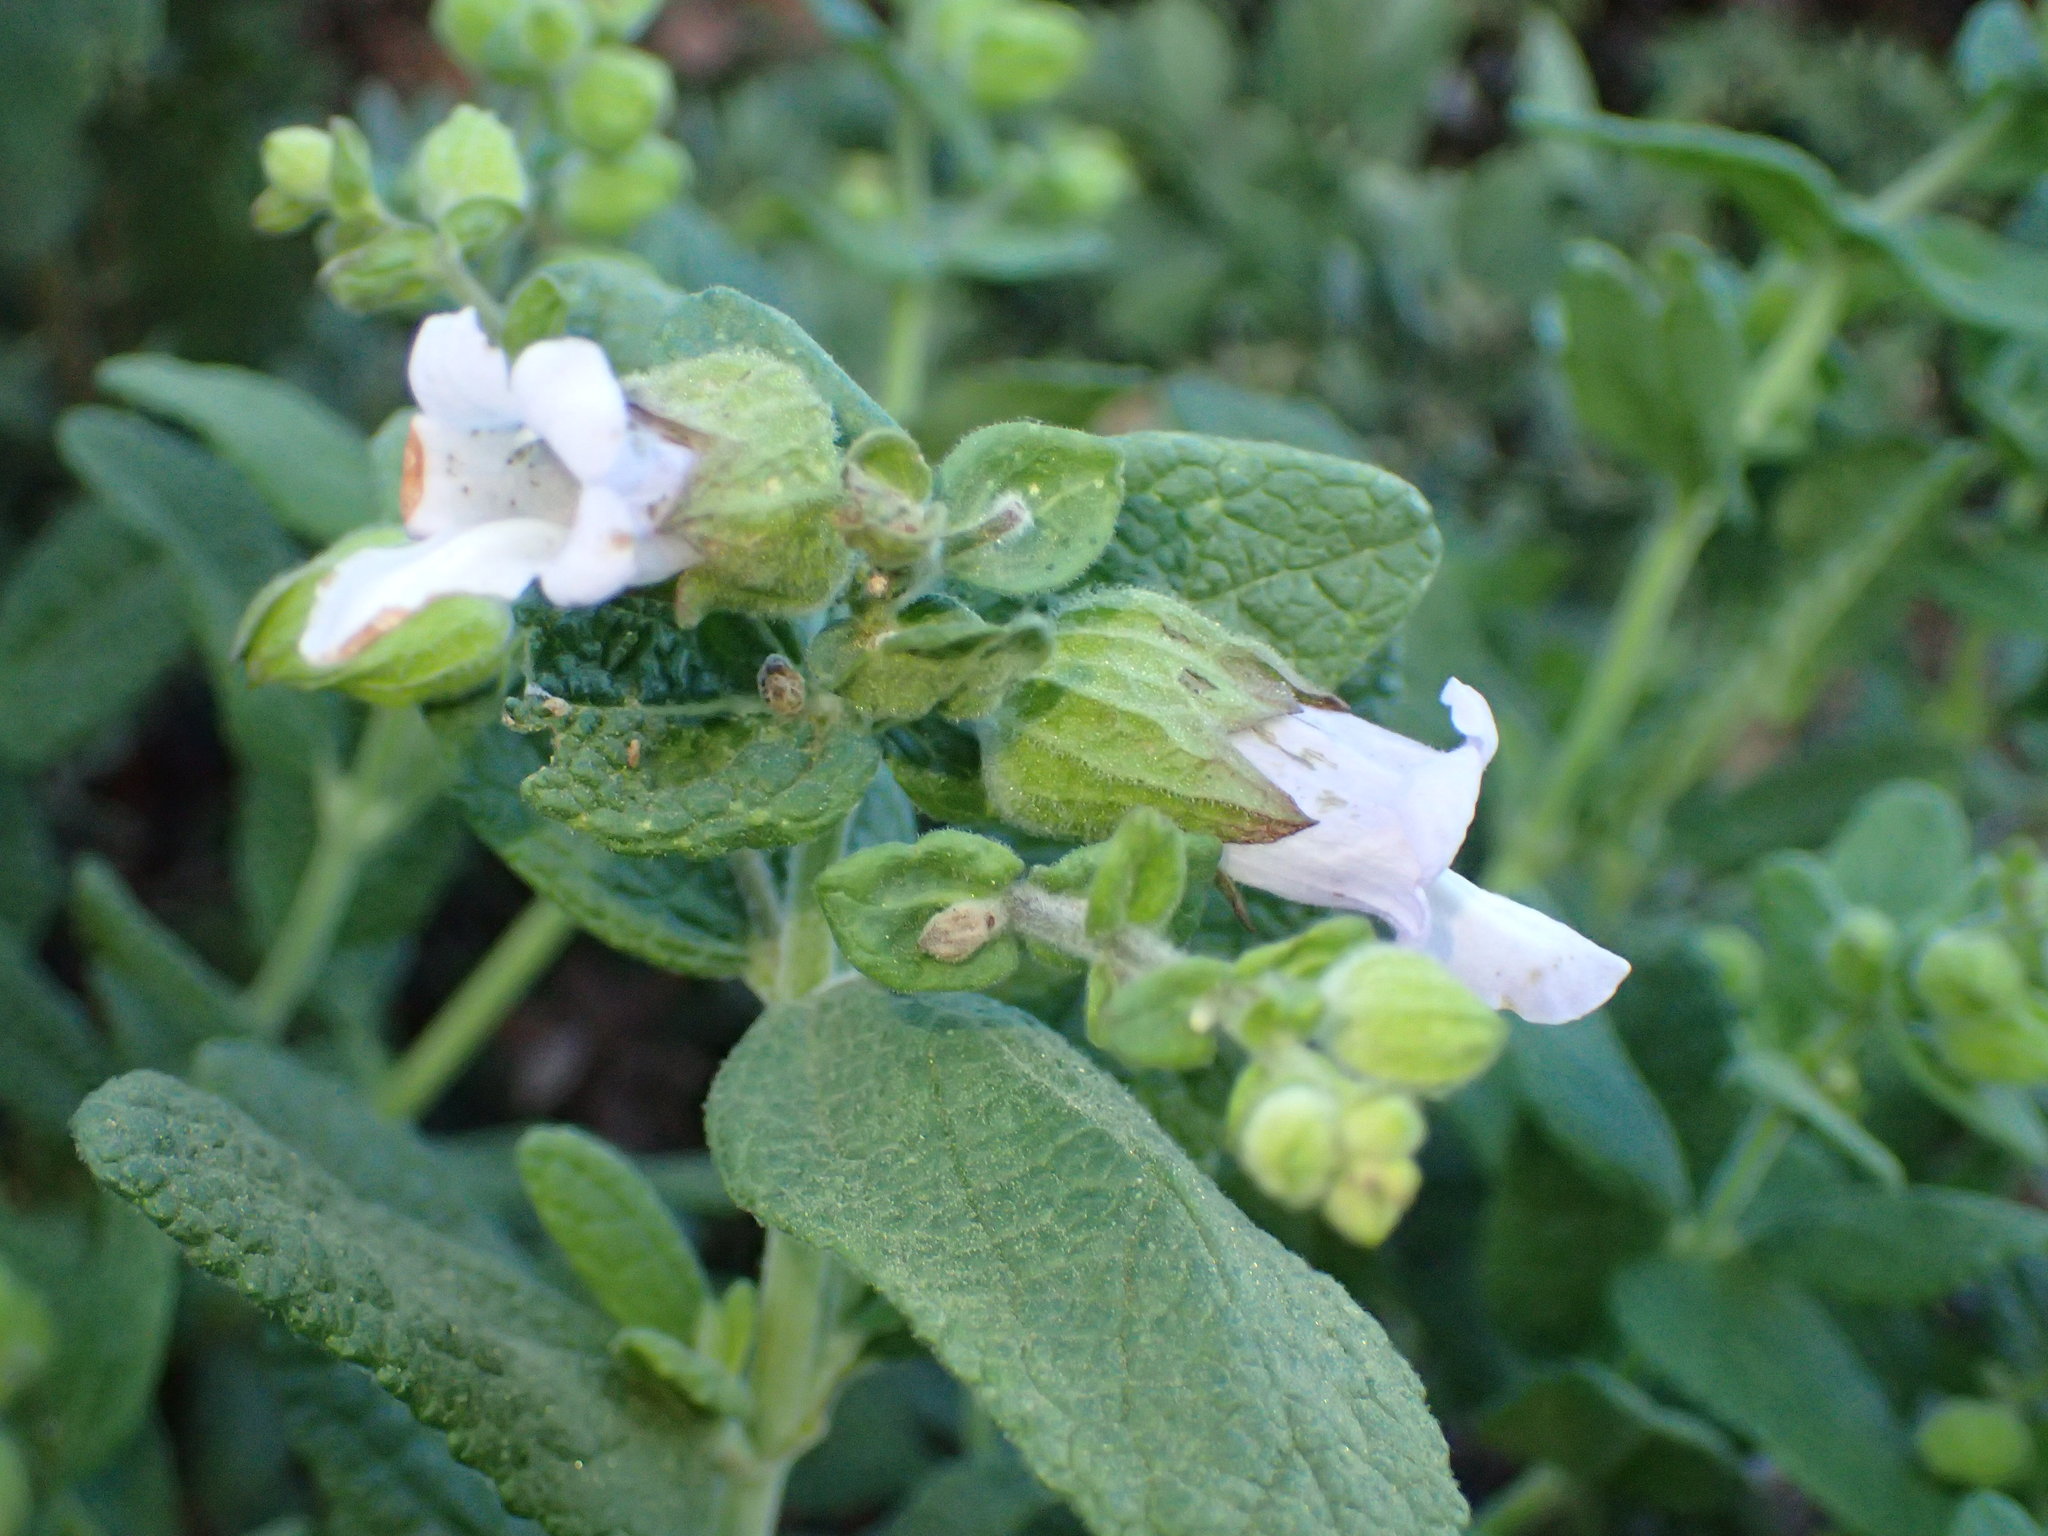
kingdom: Plantae
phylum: Tracheophyta
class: Magnoliopsida
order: Lamiales
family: Lamiaceae
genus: Lepechinia
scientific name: Lepechinia calycina
